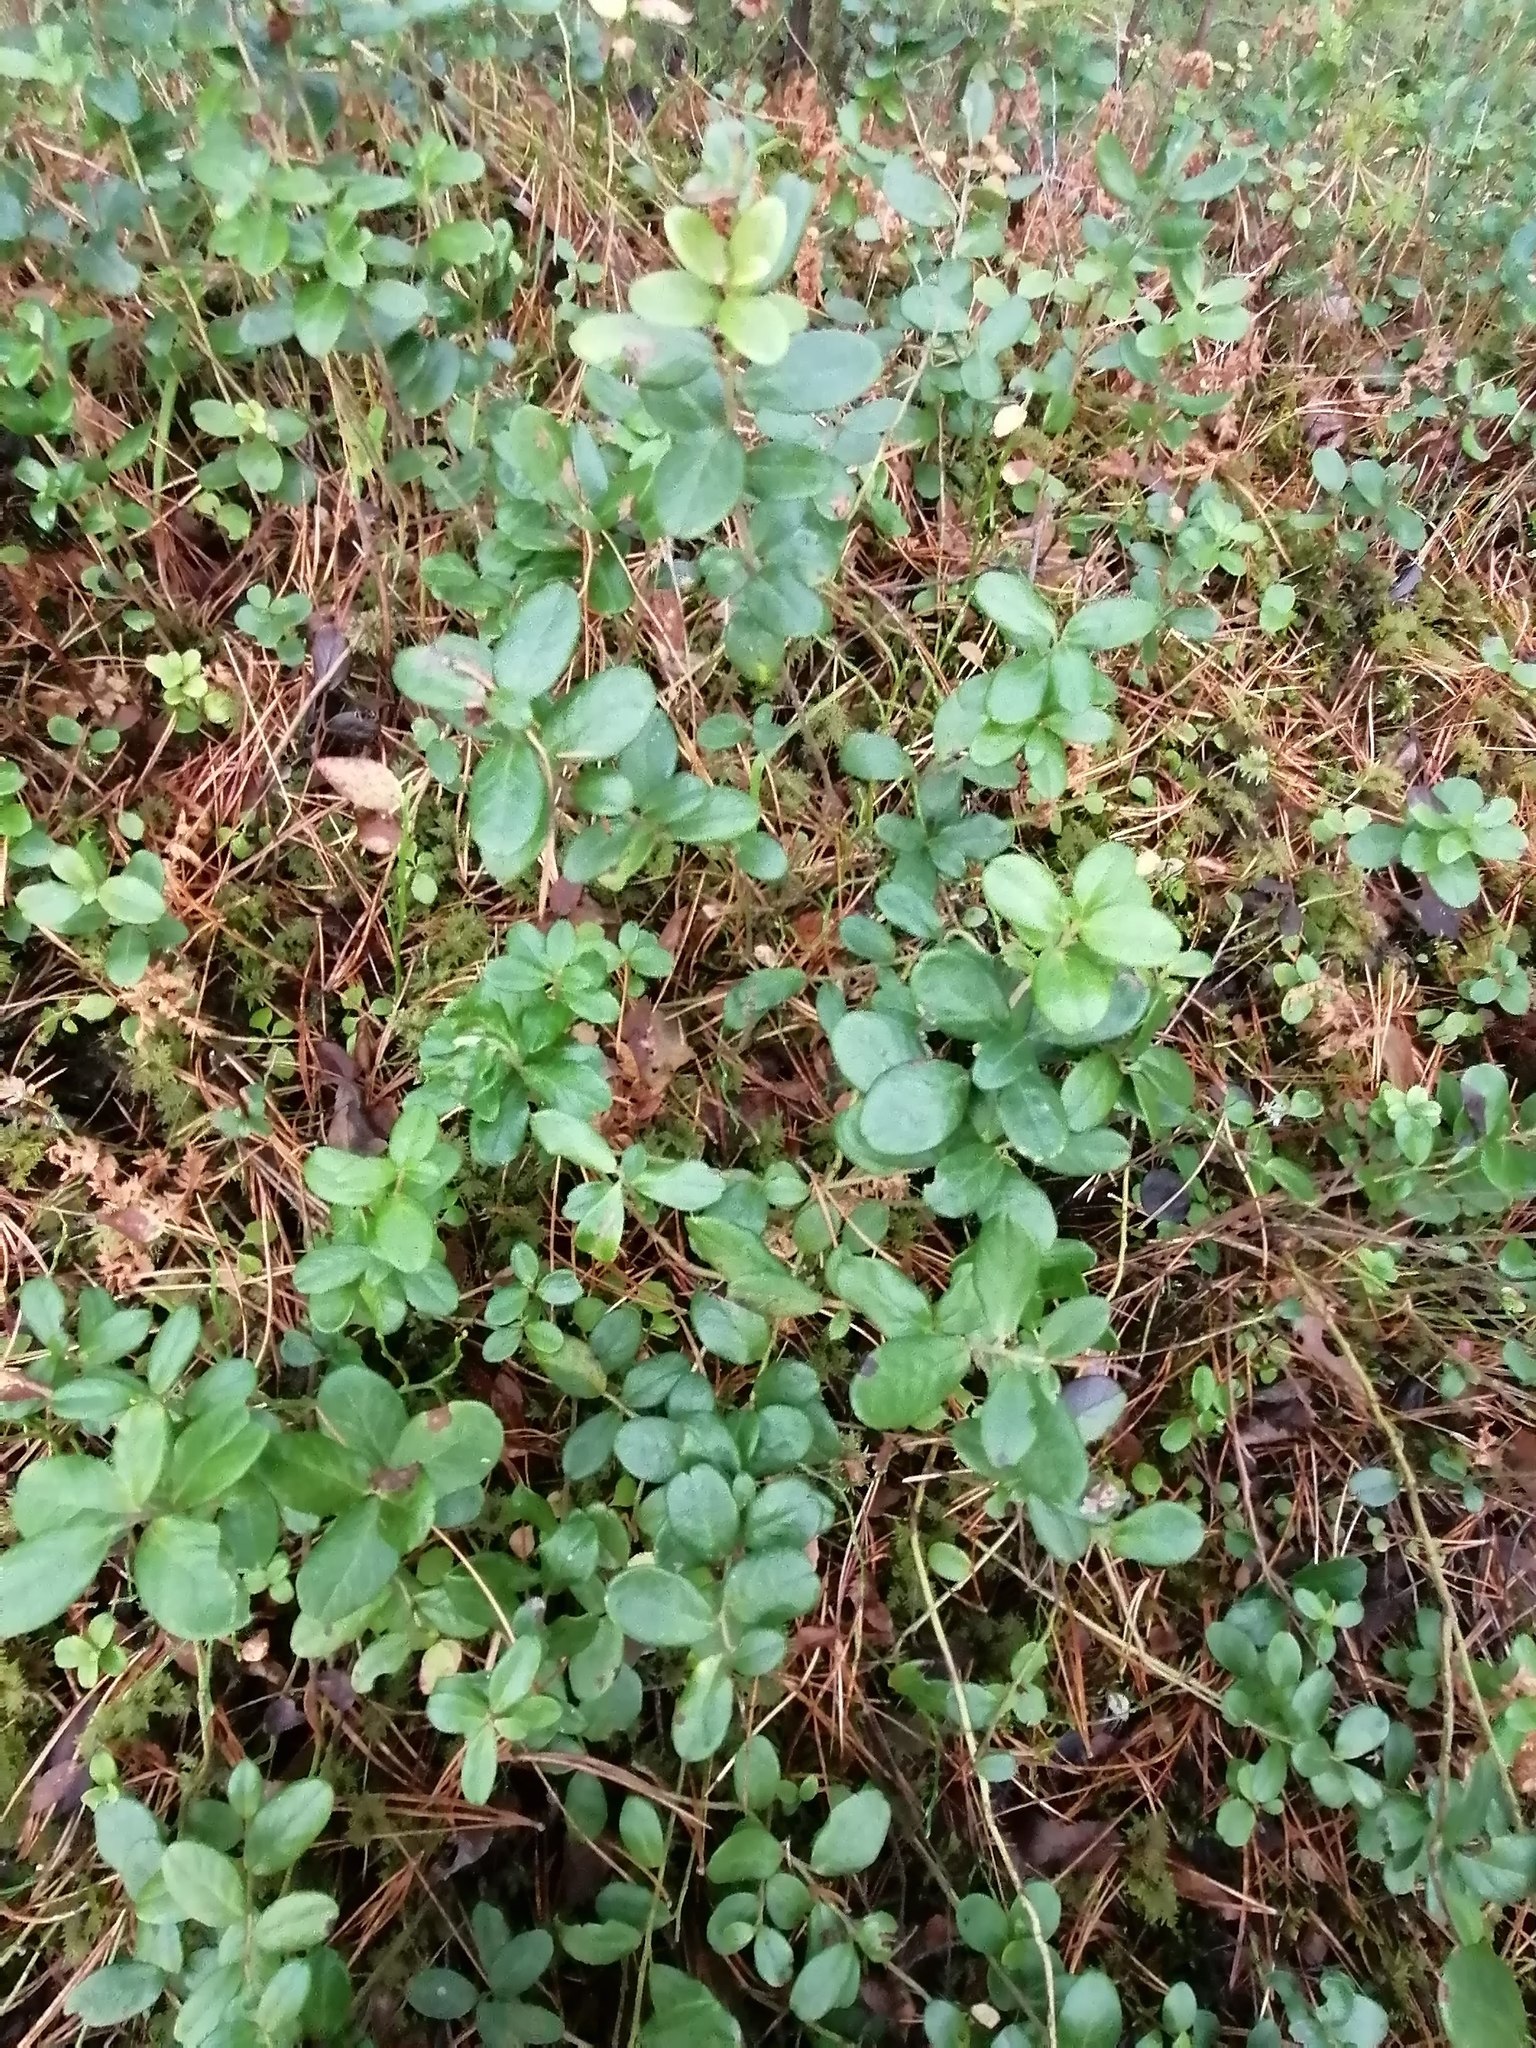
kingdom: Plantae
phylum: Tracheophyta
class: Magnoliopsida
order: Ericales
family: Ericaceae
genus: Vaccinium
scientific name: Vaccinium vitis-idaea
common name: Cowberry
